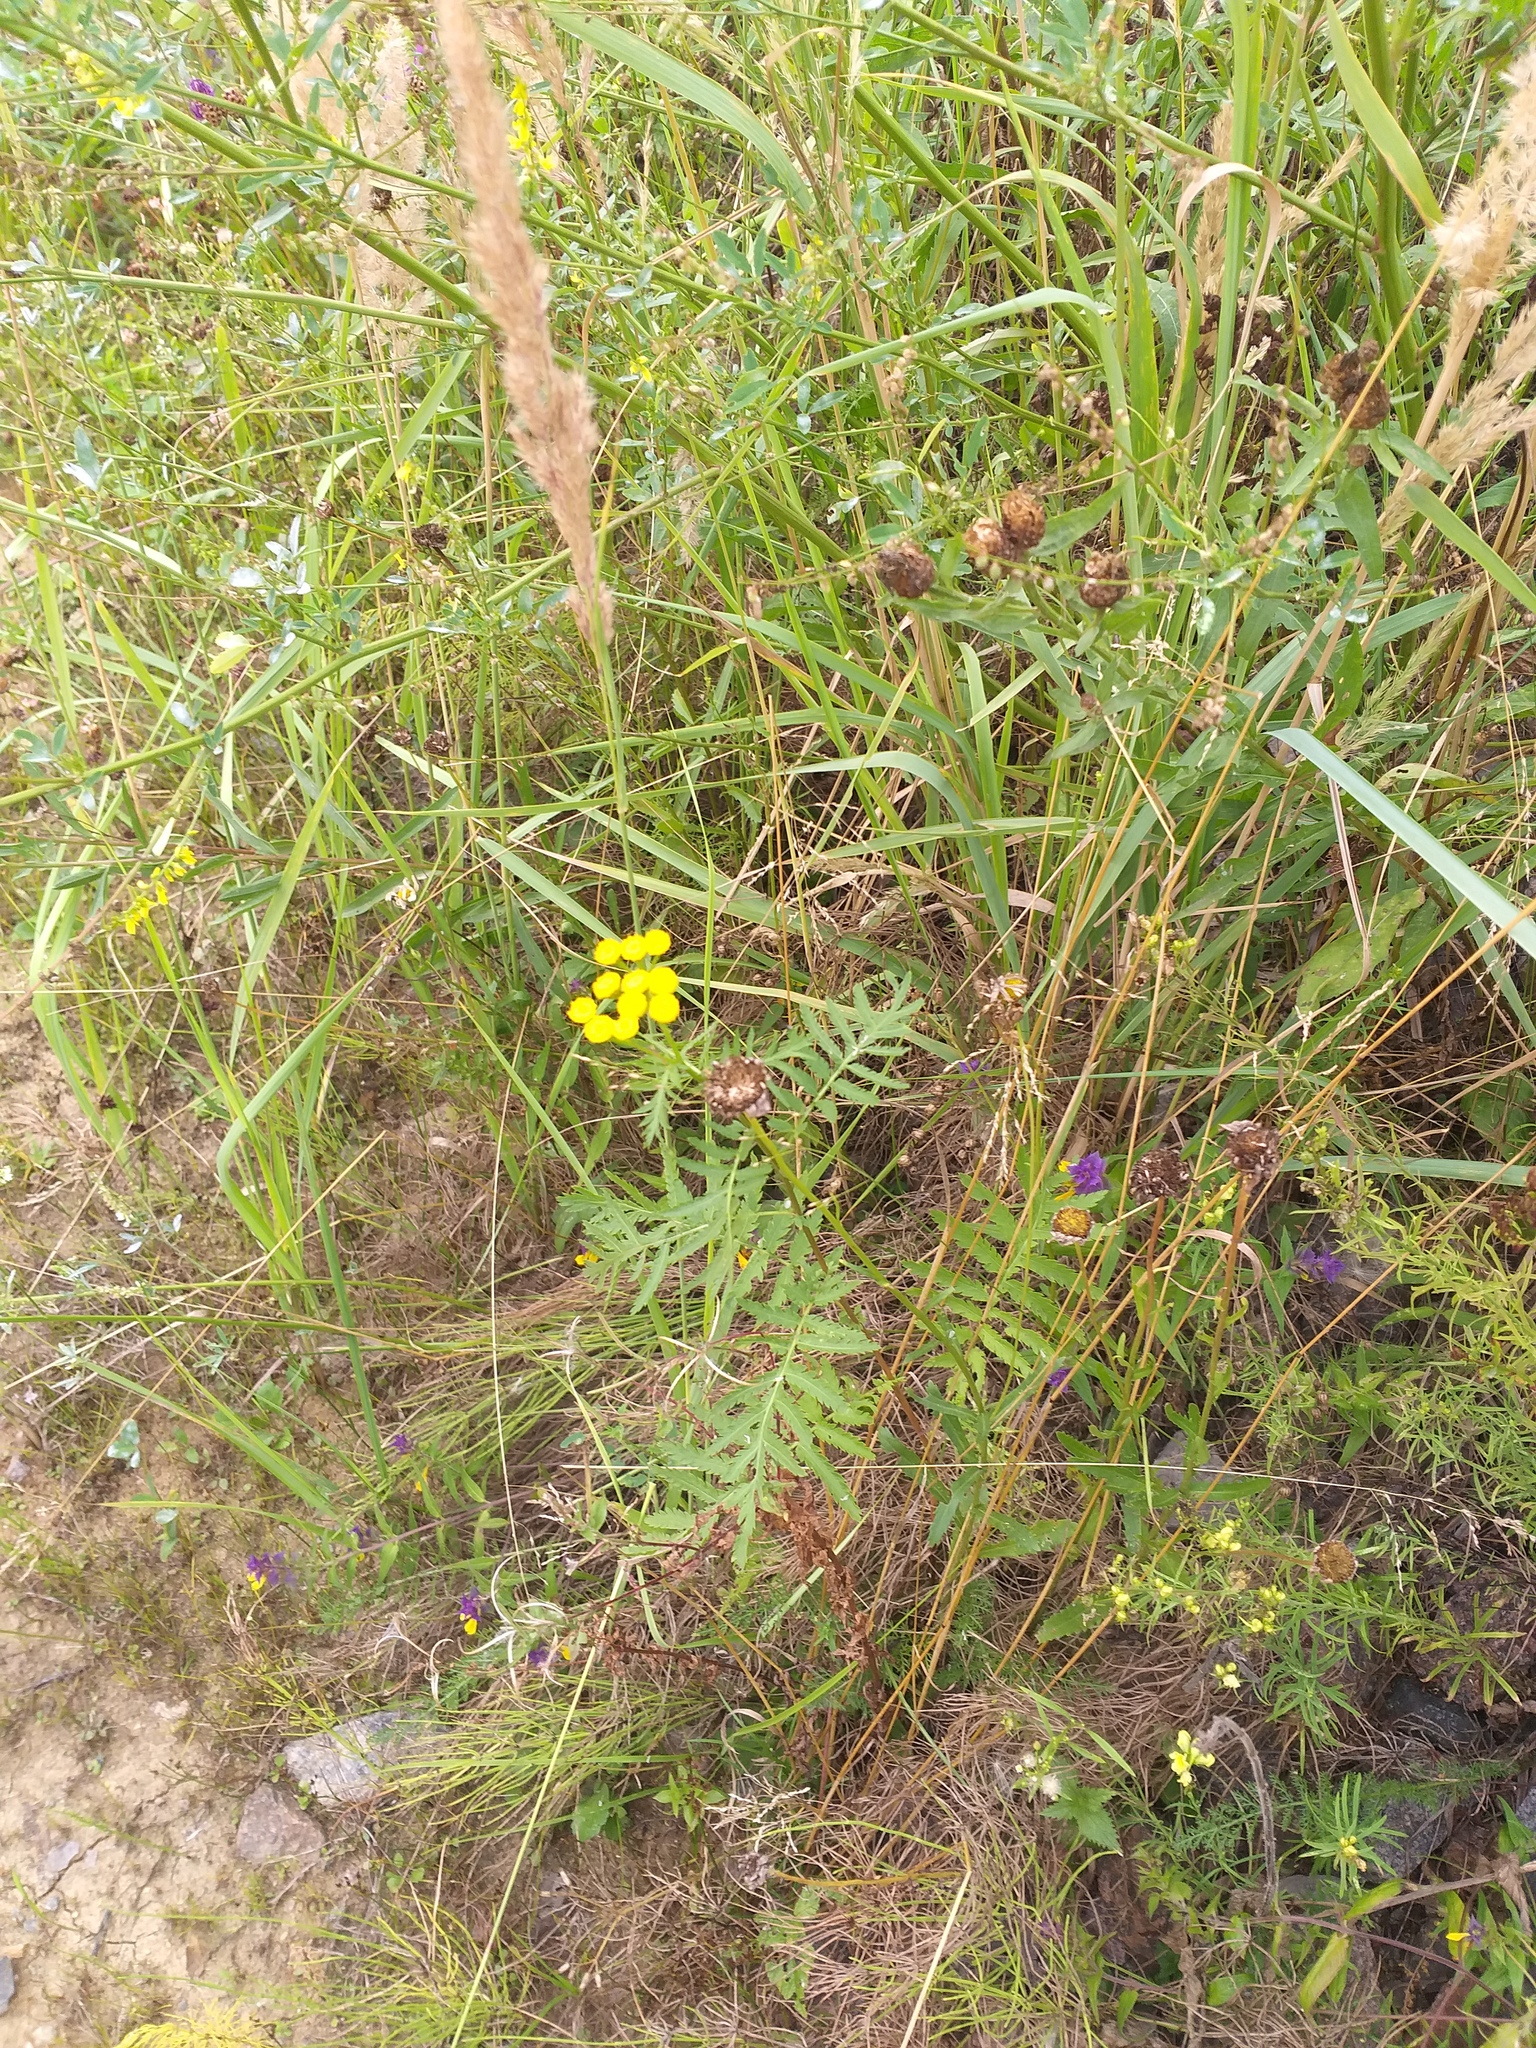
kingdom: Plantae
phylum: Tracheophyta
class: Magnoliopsida
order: Asterales
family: Asteraceae
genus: Tanacetum
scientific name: Tanacetum vulgare
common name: Common tansy
